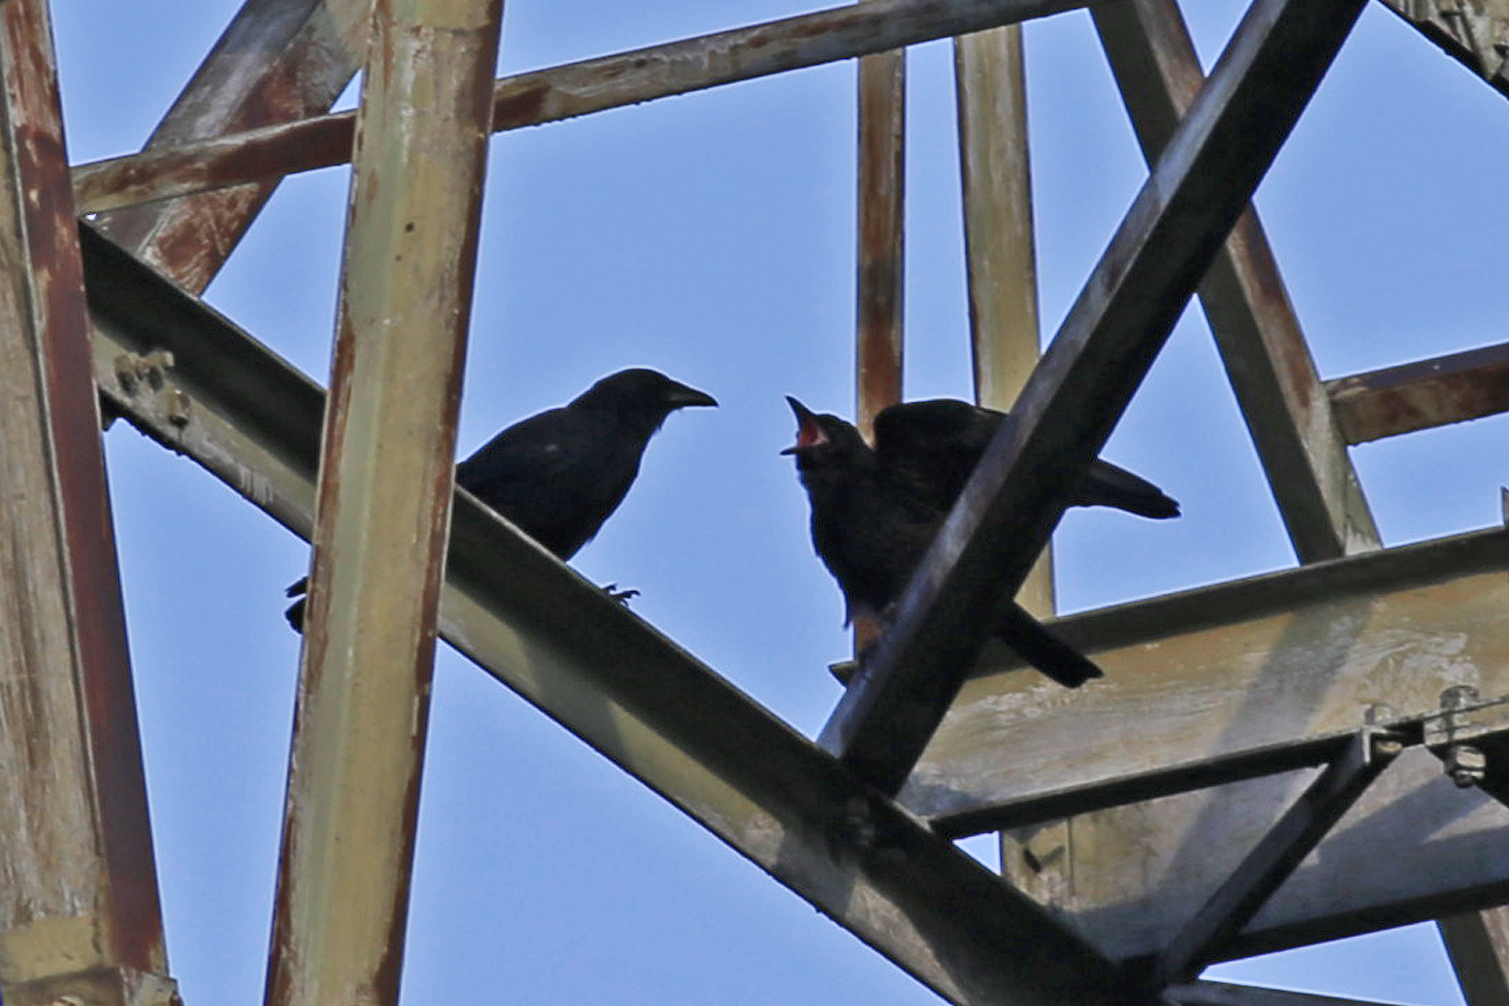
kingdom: Animalia
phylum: Chordata
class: Aves
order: Passeriformes
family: Corvidae
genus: Corvus
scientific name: Corvus ossifragus
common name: Fish crow
